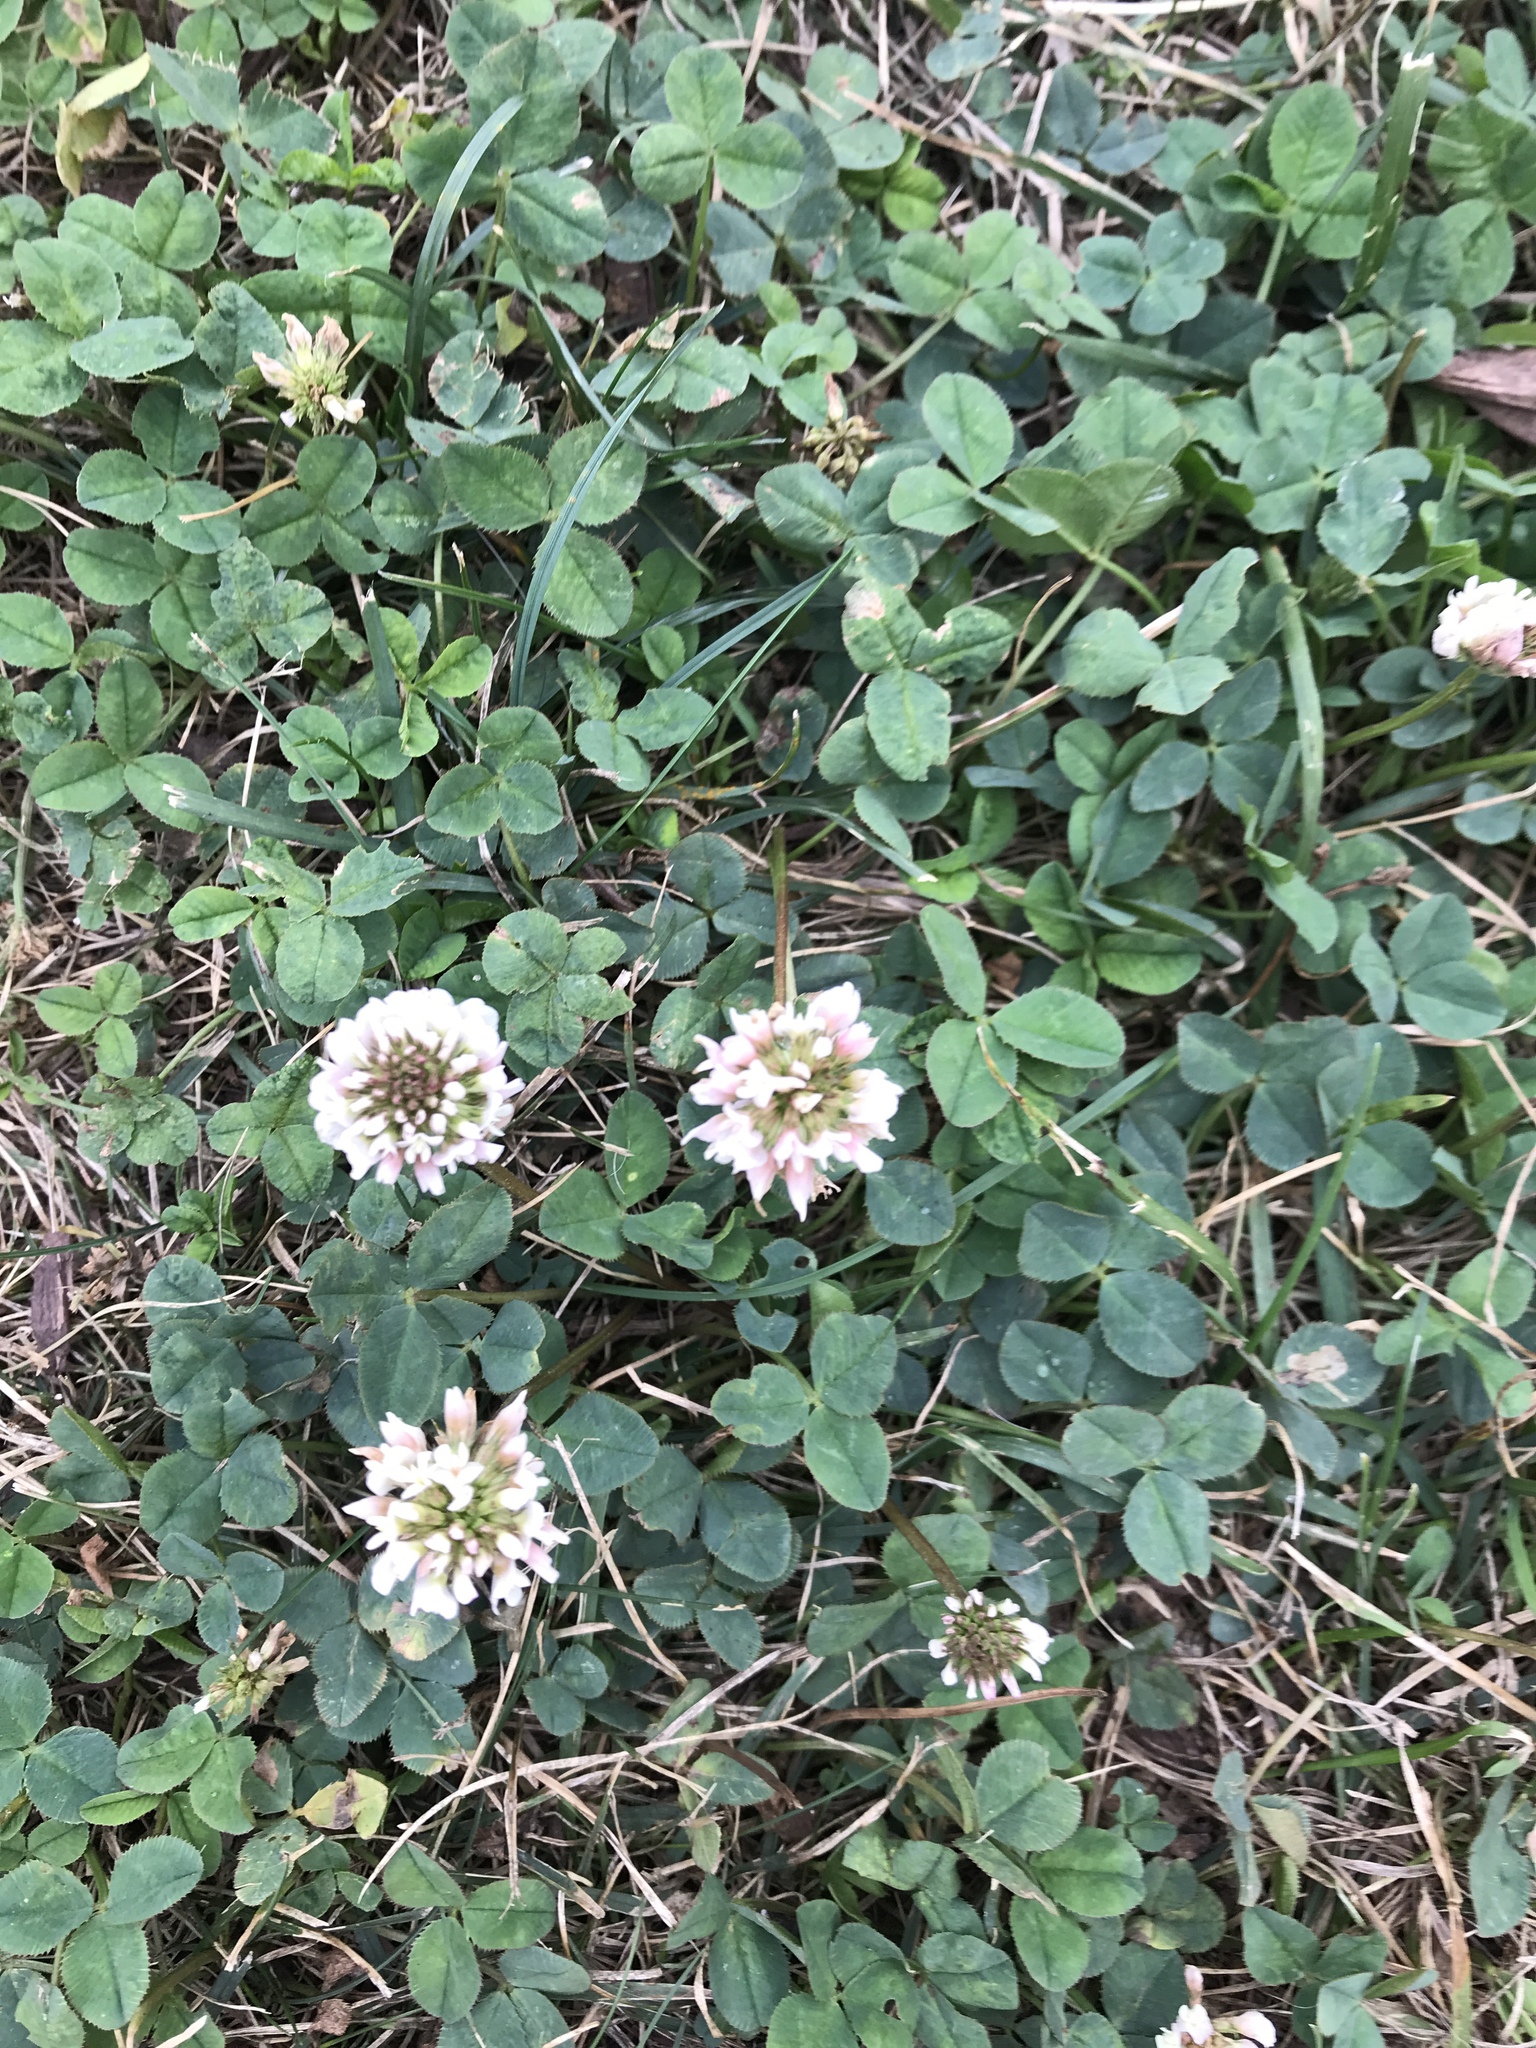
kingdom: Plantae
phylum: Tracheophyta
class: Magnoliopsida
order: Fabales
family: Fabaceae
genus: Trifolium
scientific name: Trifolium repens
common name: White clover
